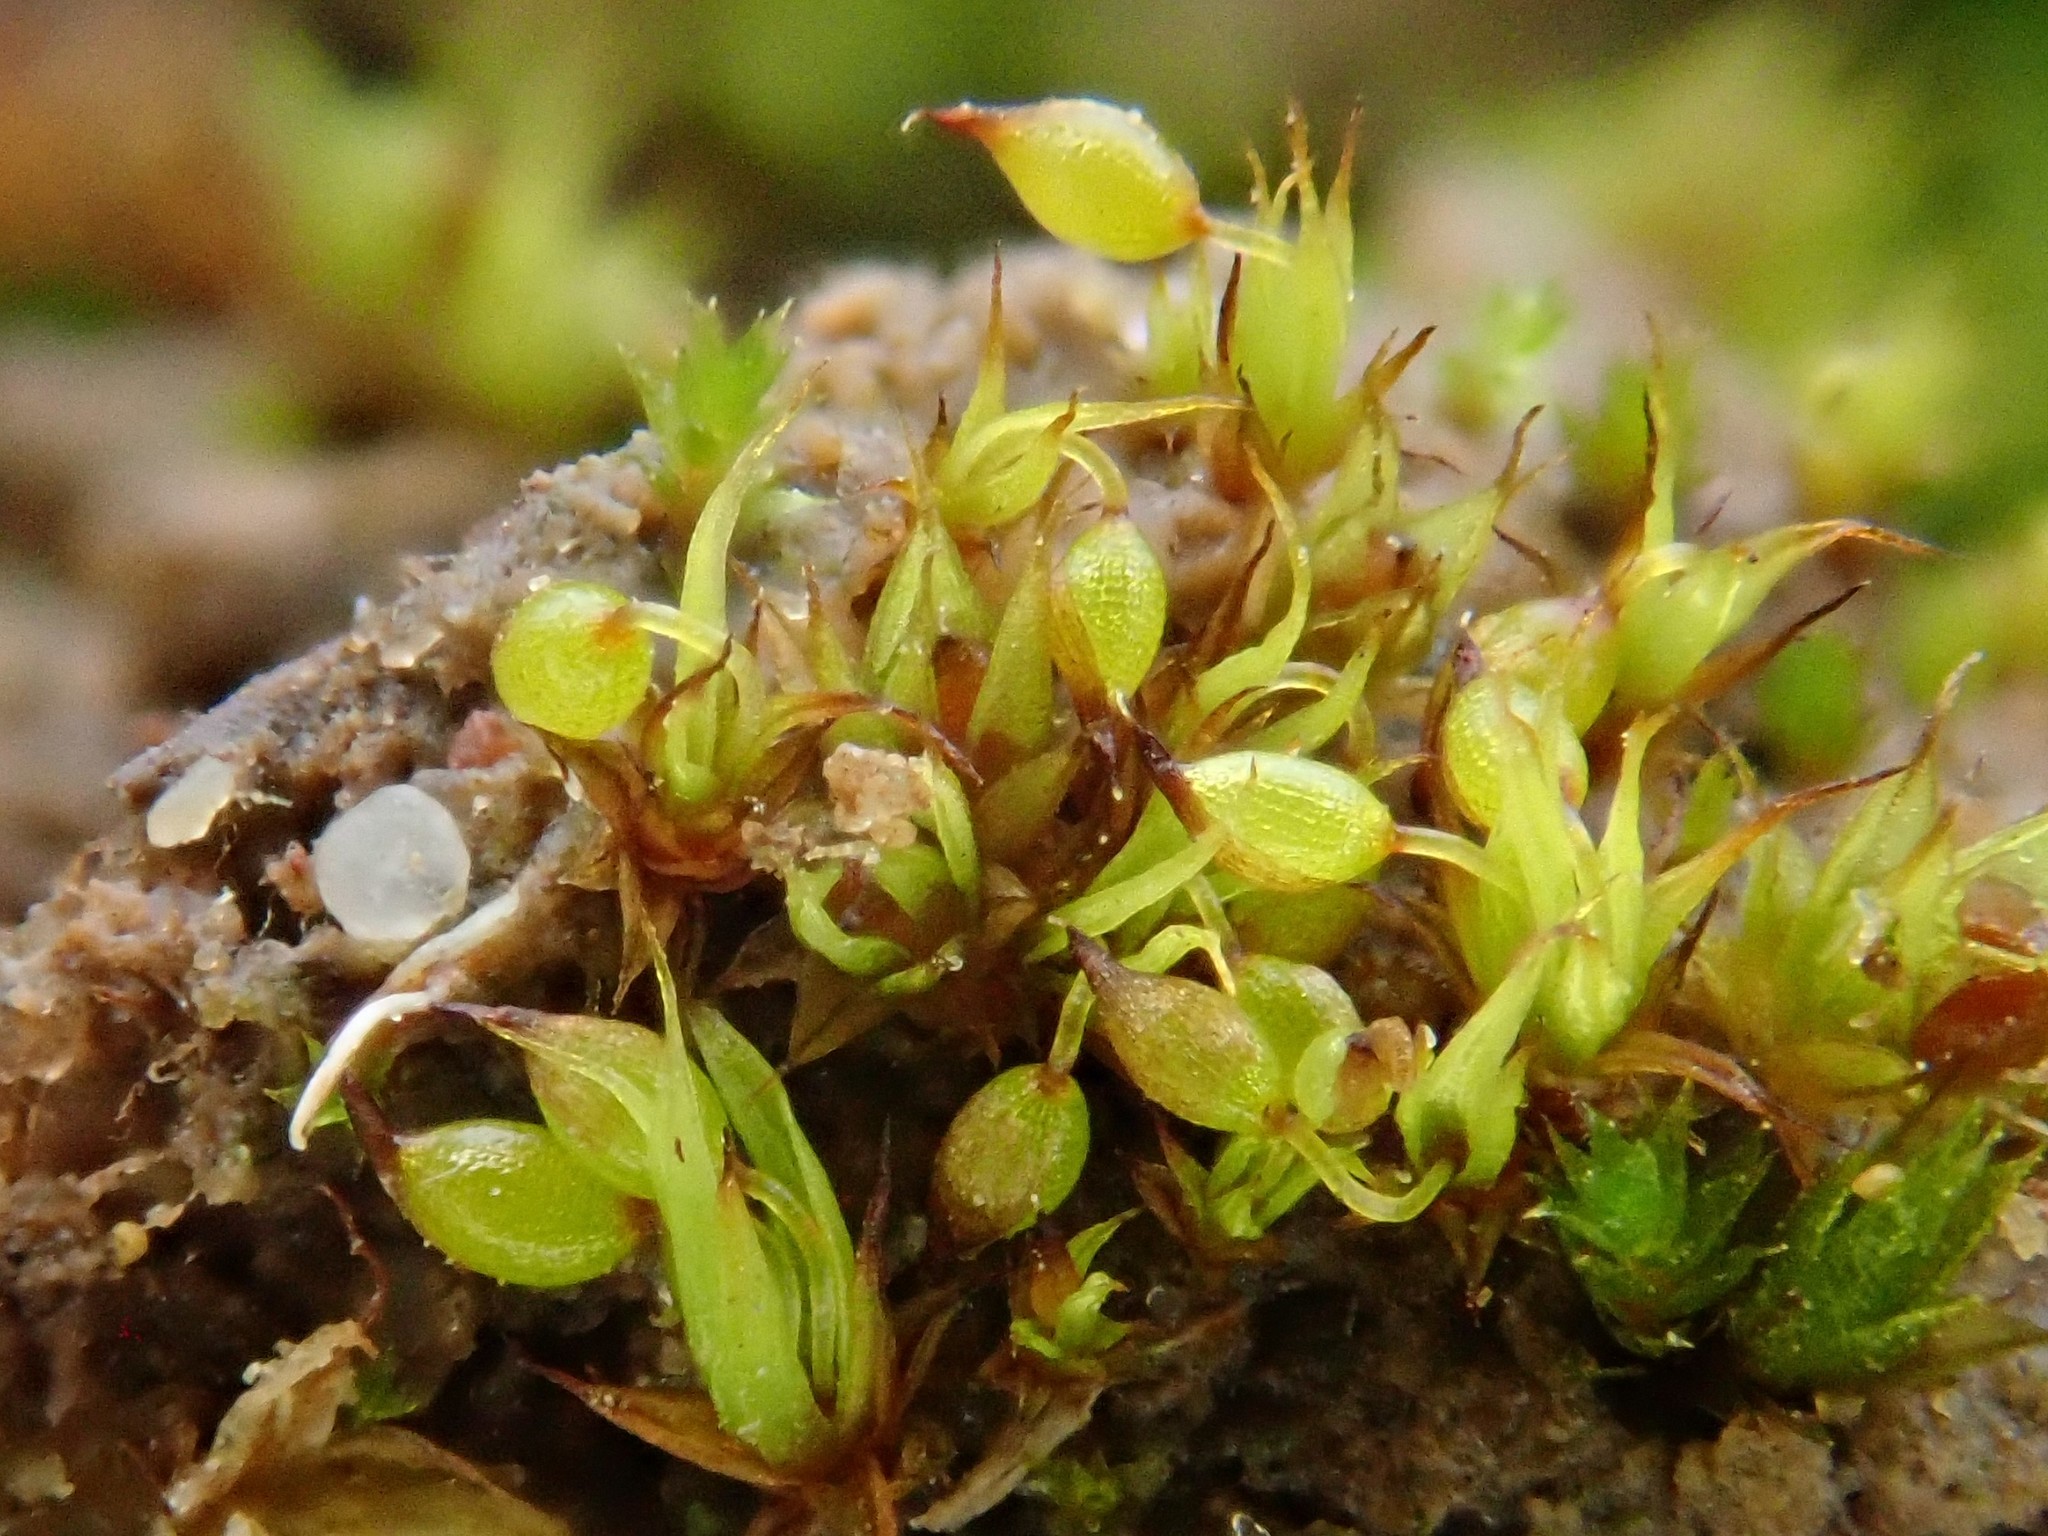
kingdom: Plantae
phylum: Bryophyta
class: Bryopsida
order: Pottiales
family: Pottiaceae
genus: Microbryum
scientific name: Microbryum curvicollum
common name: Swan-necked earth-moss
